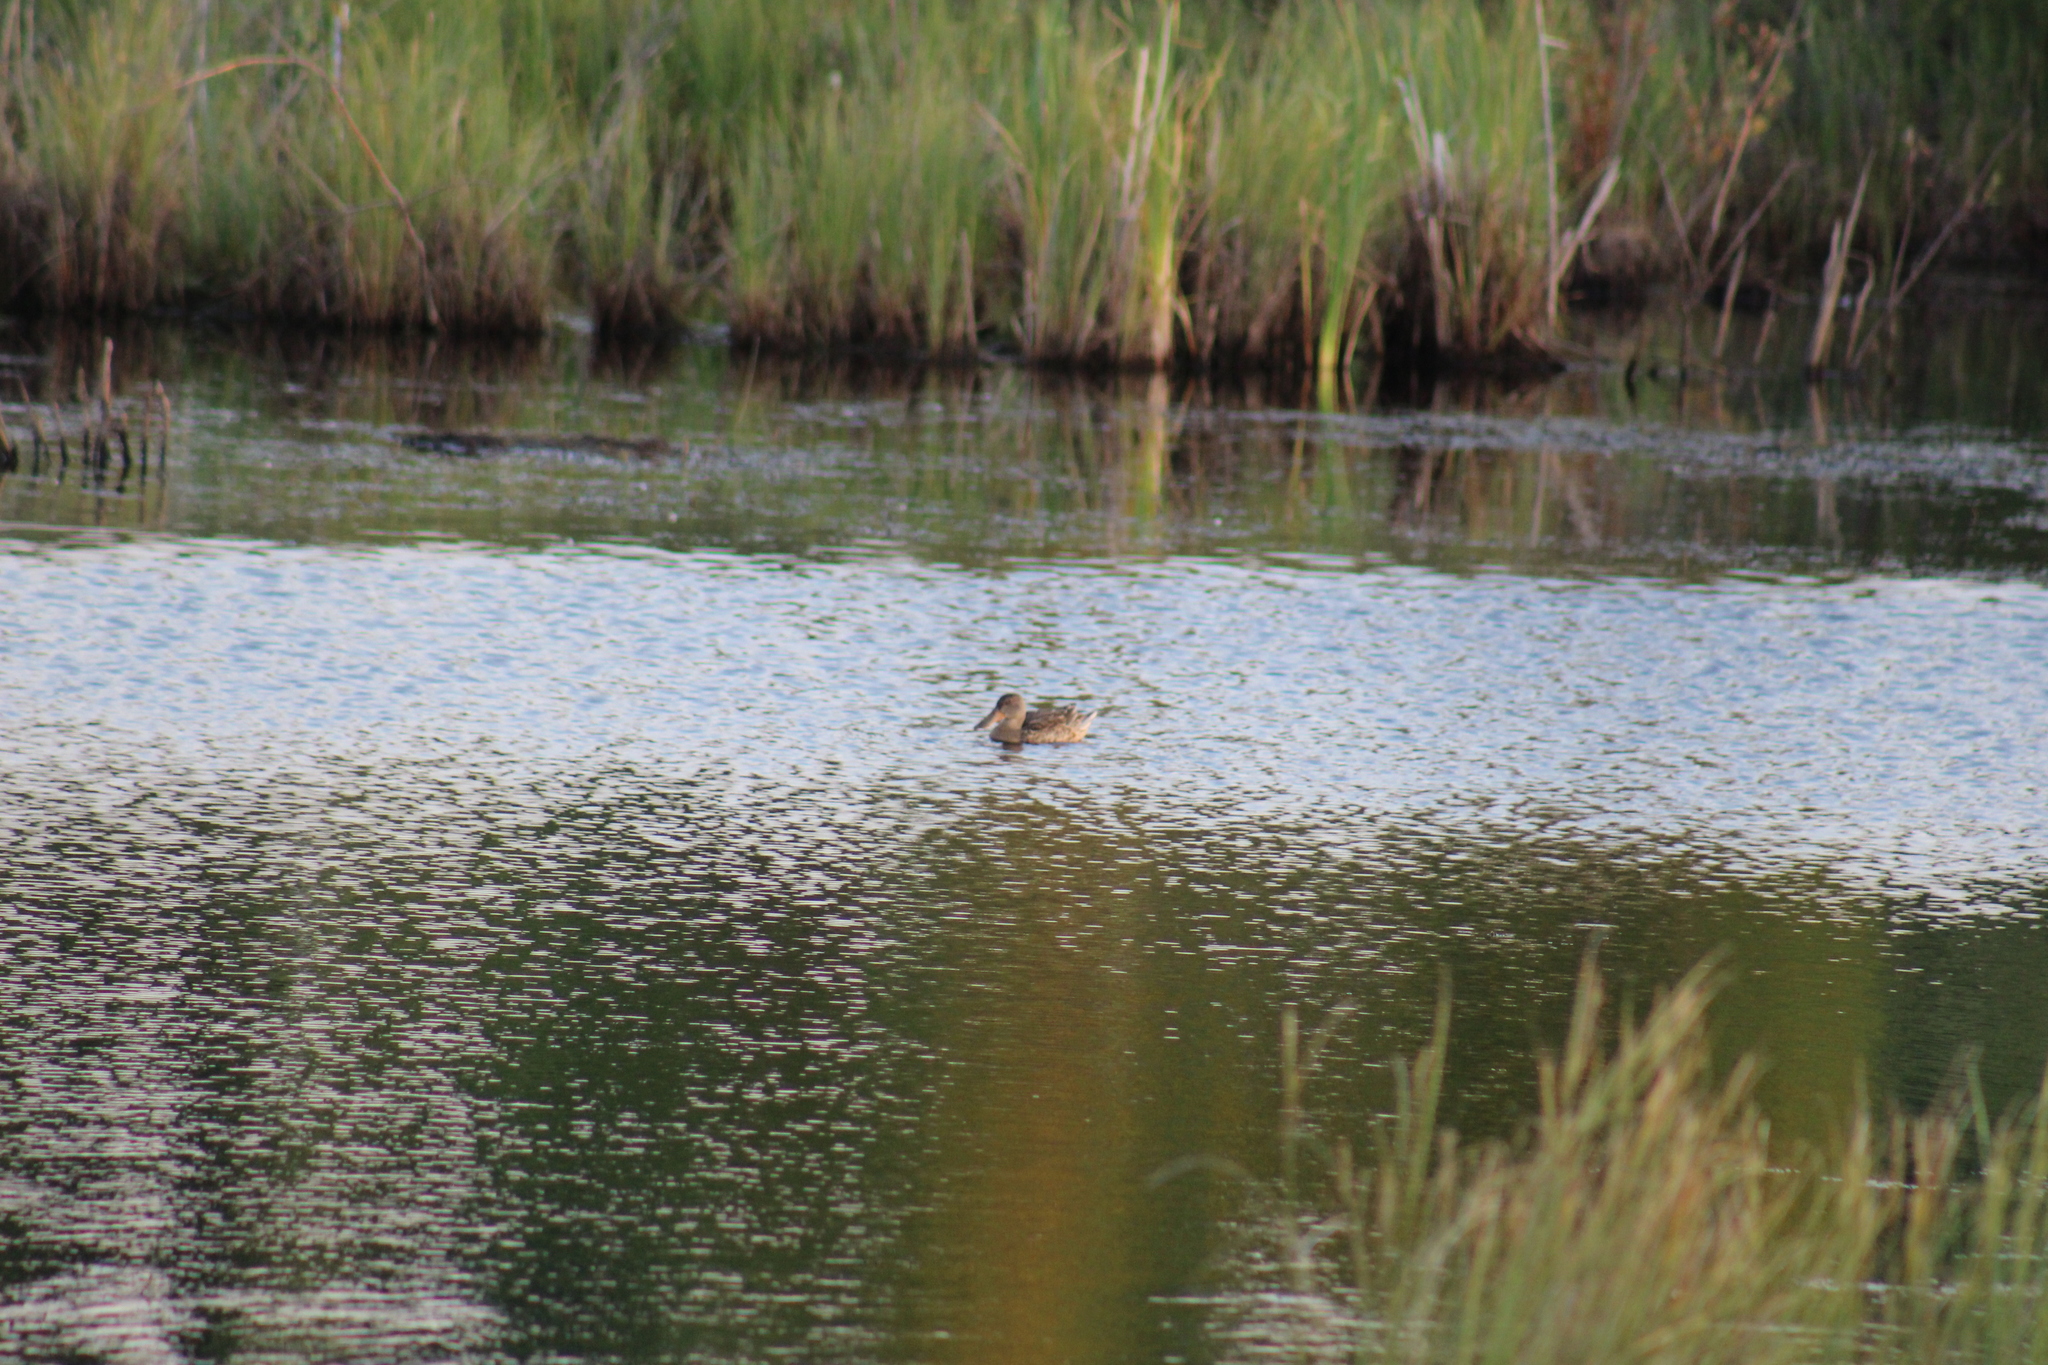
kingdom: Animalia
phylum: Chordata
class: Aves
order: Anseriformes
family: Anatidae
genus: Spatula
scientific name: Spatula clypeata
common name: Northern shoveler
